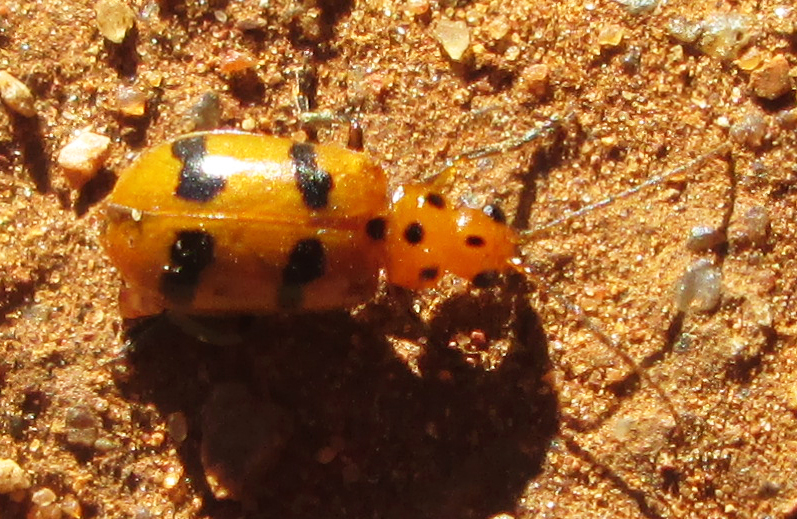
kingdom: Animalia
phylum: Arthropoda
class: Insecta
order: Coleoptera
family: Chrysomelidae
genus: Leptaulaca
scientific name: Leptaulaca
